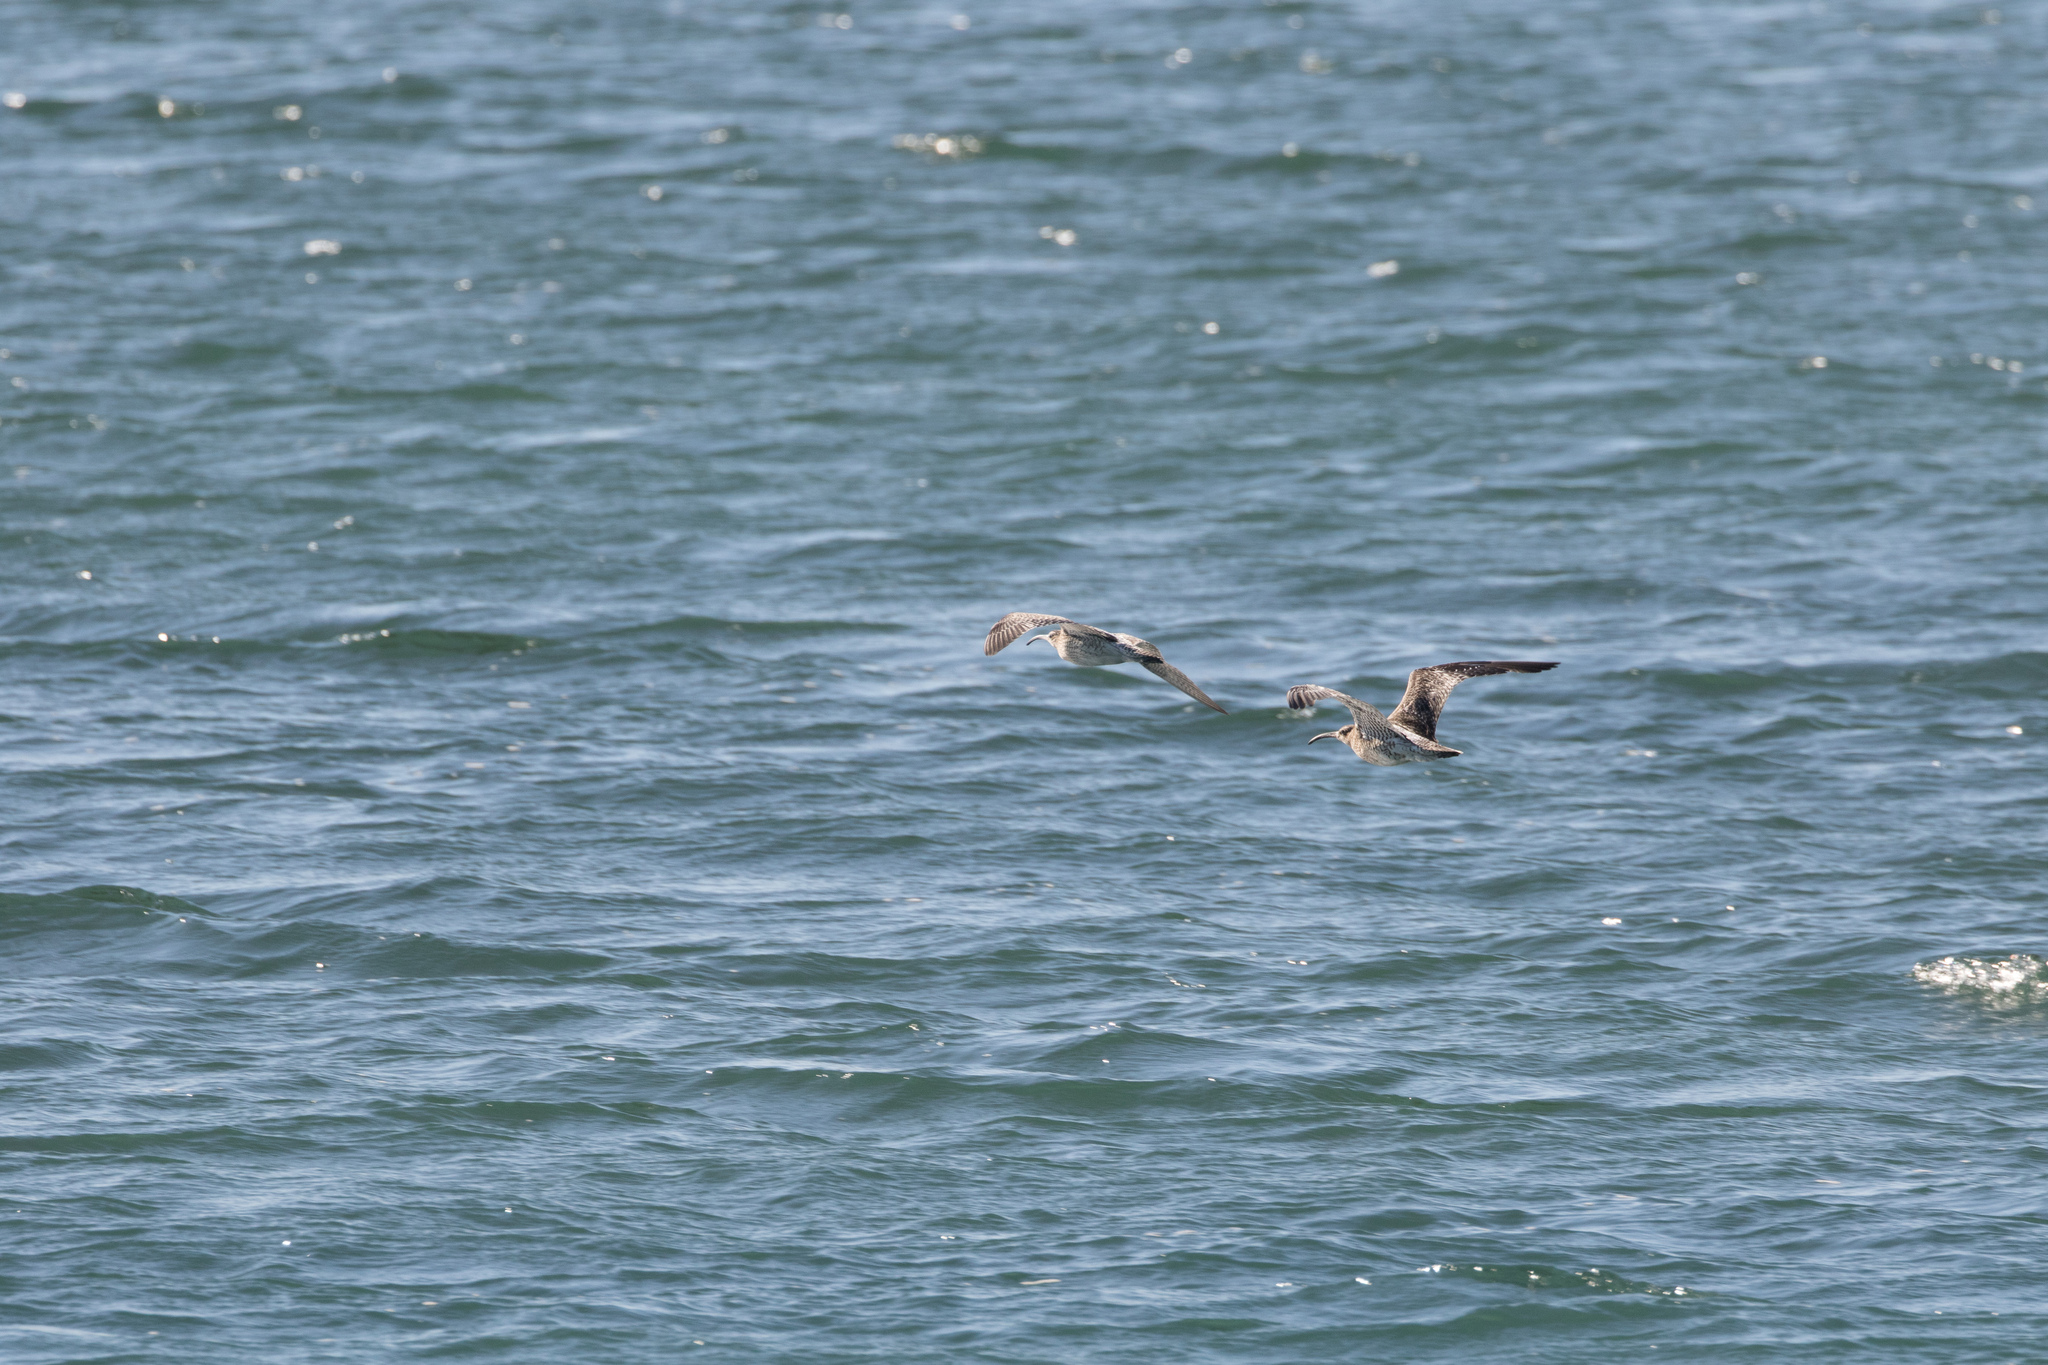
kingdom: Animalia
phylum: Chordata
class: Aves
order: Charadriiformes
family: Scolopacidae
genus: Numenius
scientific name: Numenius phaeopus
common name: Whimbrel
